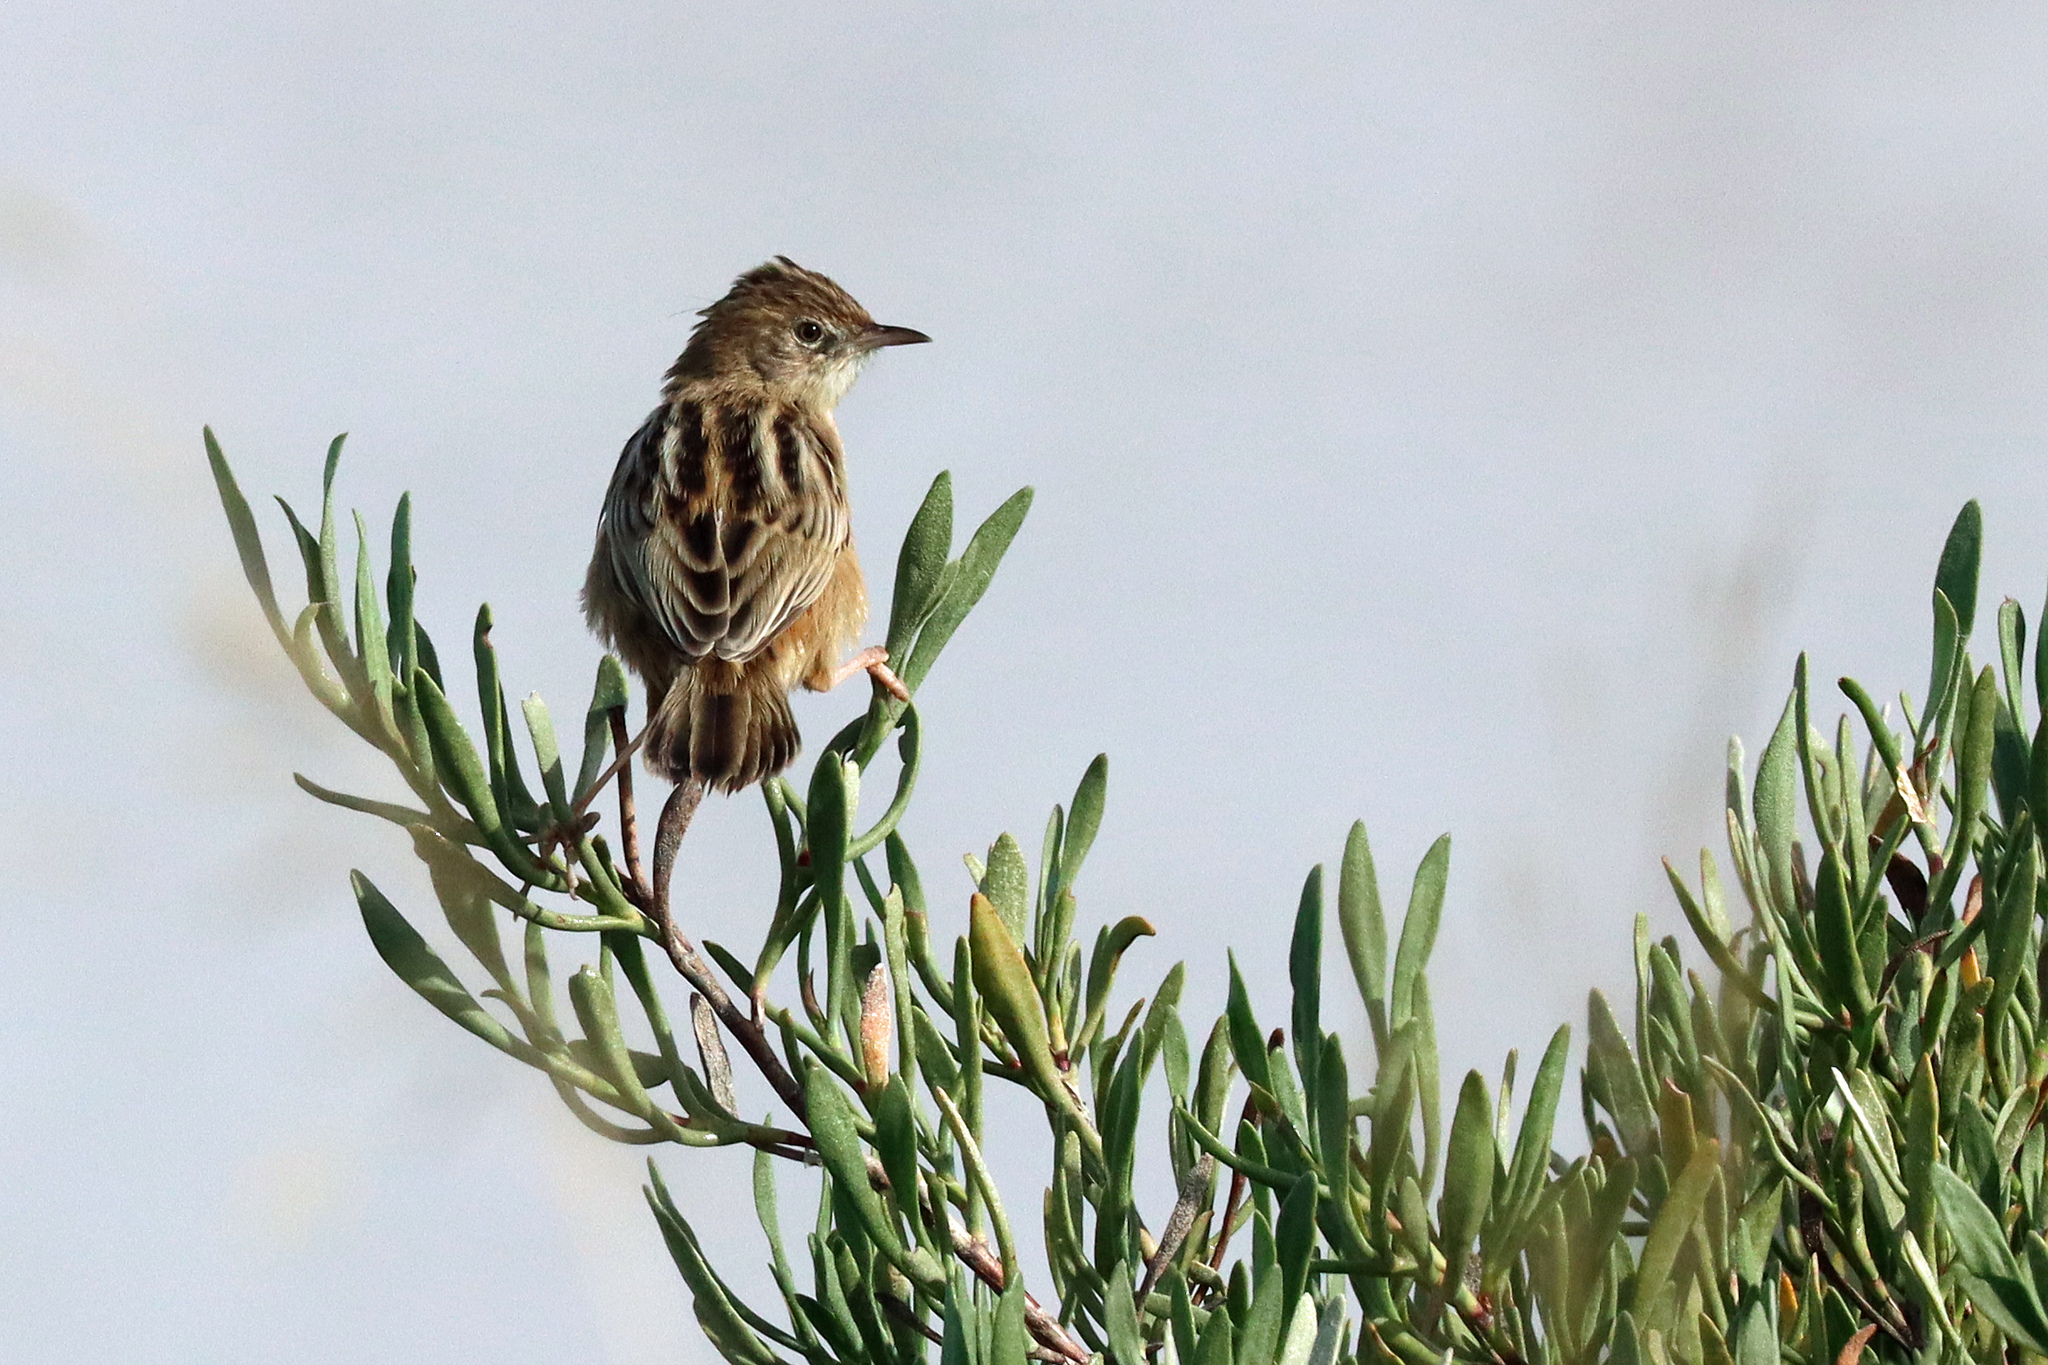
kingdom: Animalia
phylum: Chordata
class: Aves
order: Passeriformes
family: Cisticolidae
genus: Cisticola
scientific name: Cisticola juncidis
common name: Zitting cisticola
